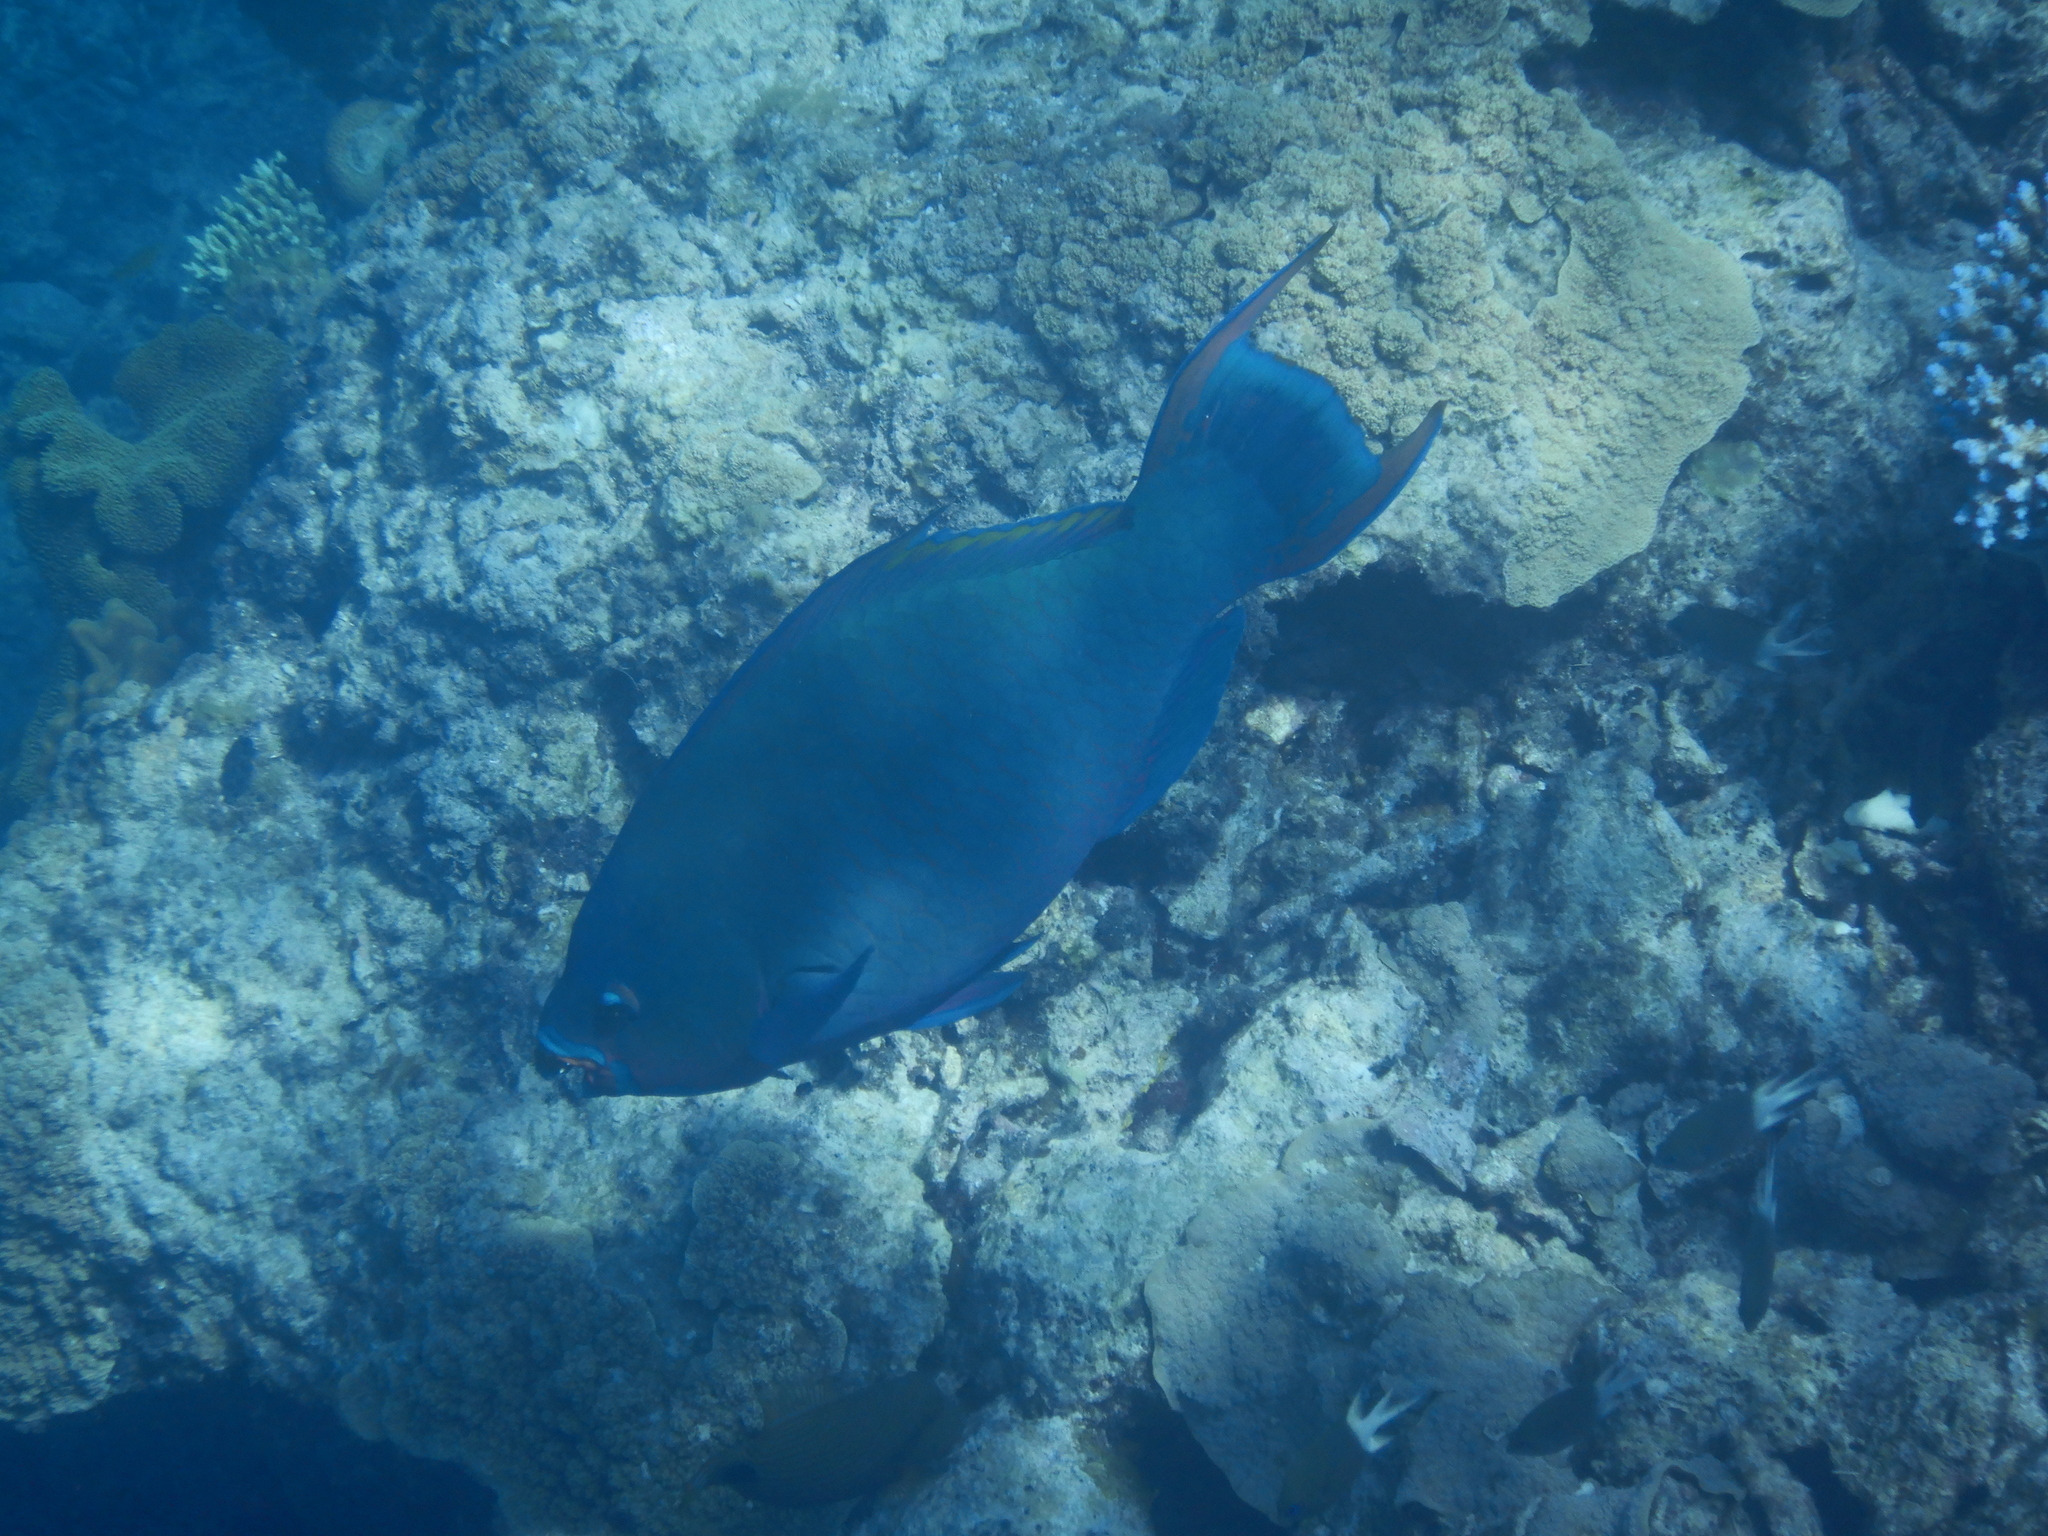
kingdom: Animalia
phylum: Chordata
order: Perciformes
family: Scaridae
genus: Scarus
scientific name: Scarus altipinnis
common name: Minifin parrotfish
